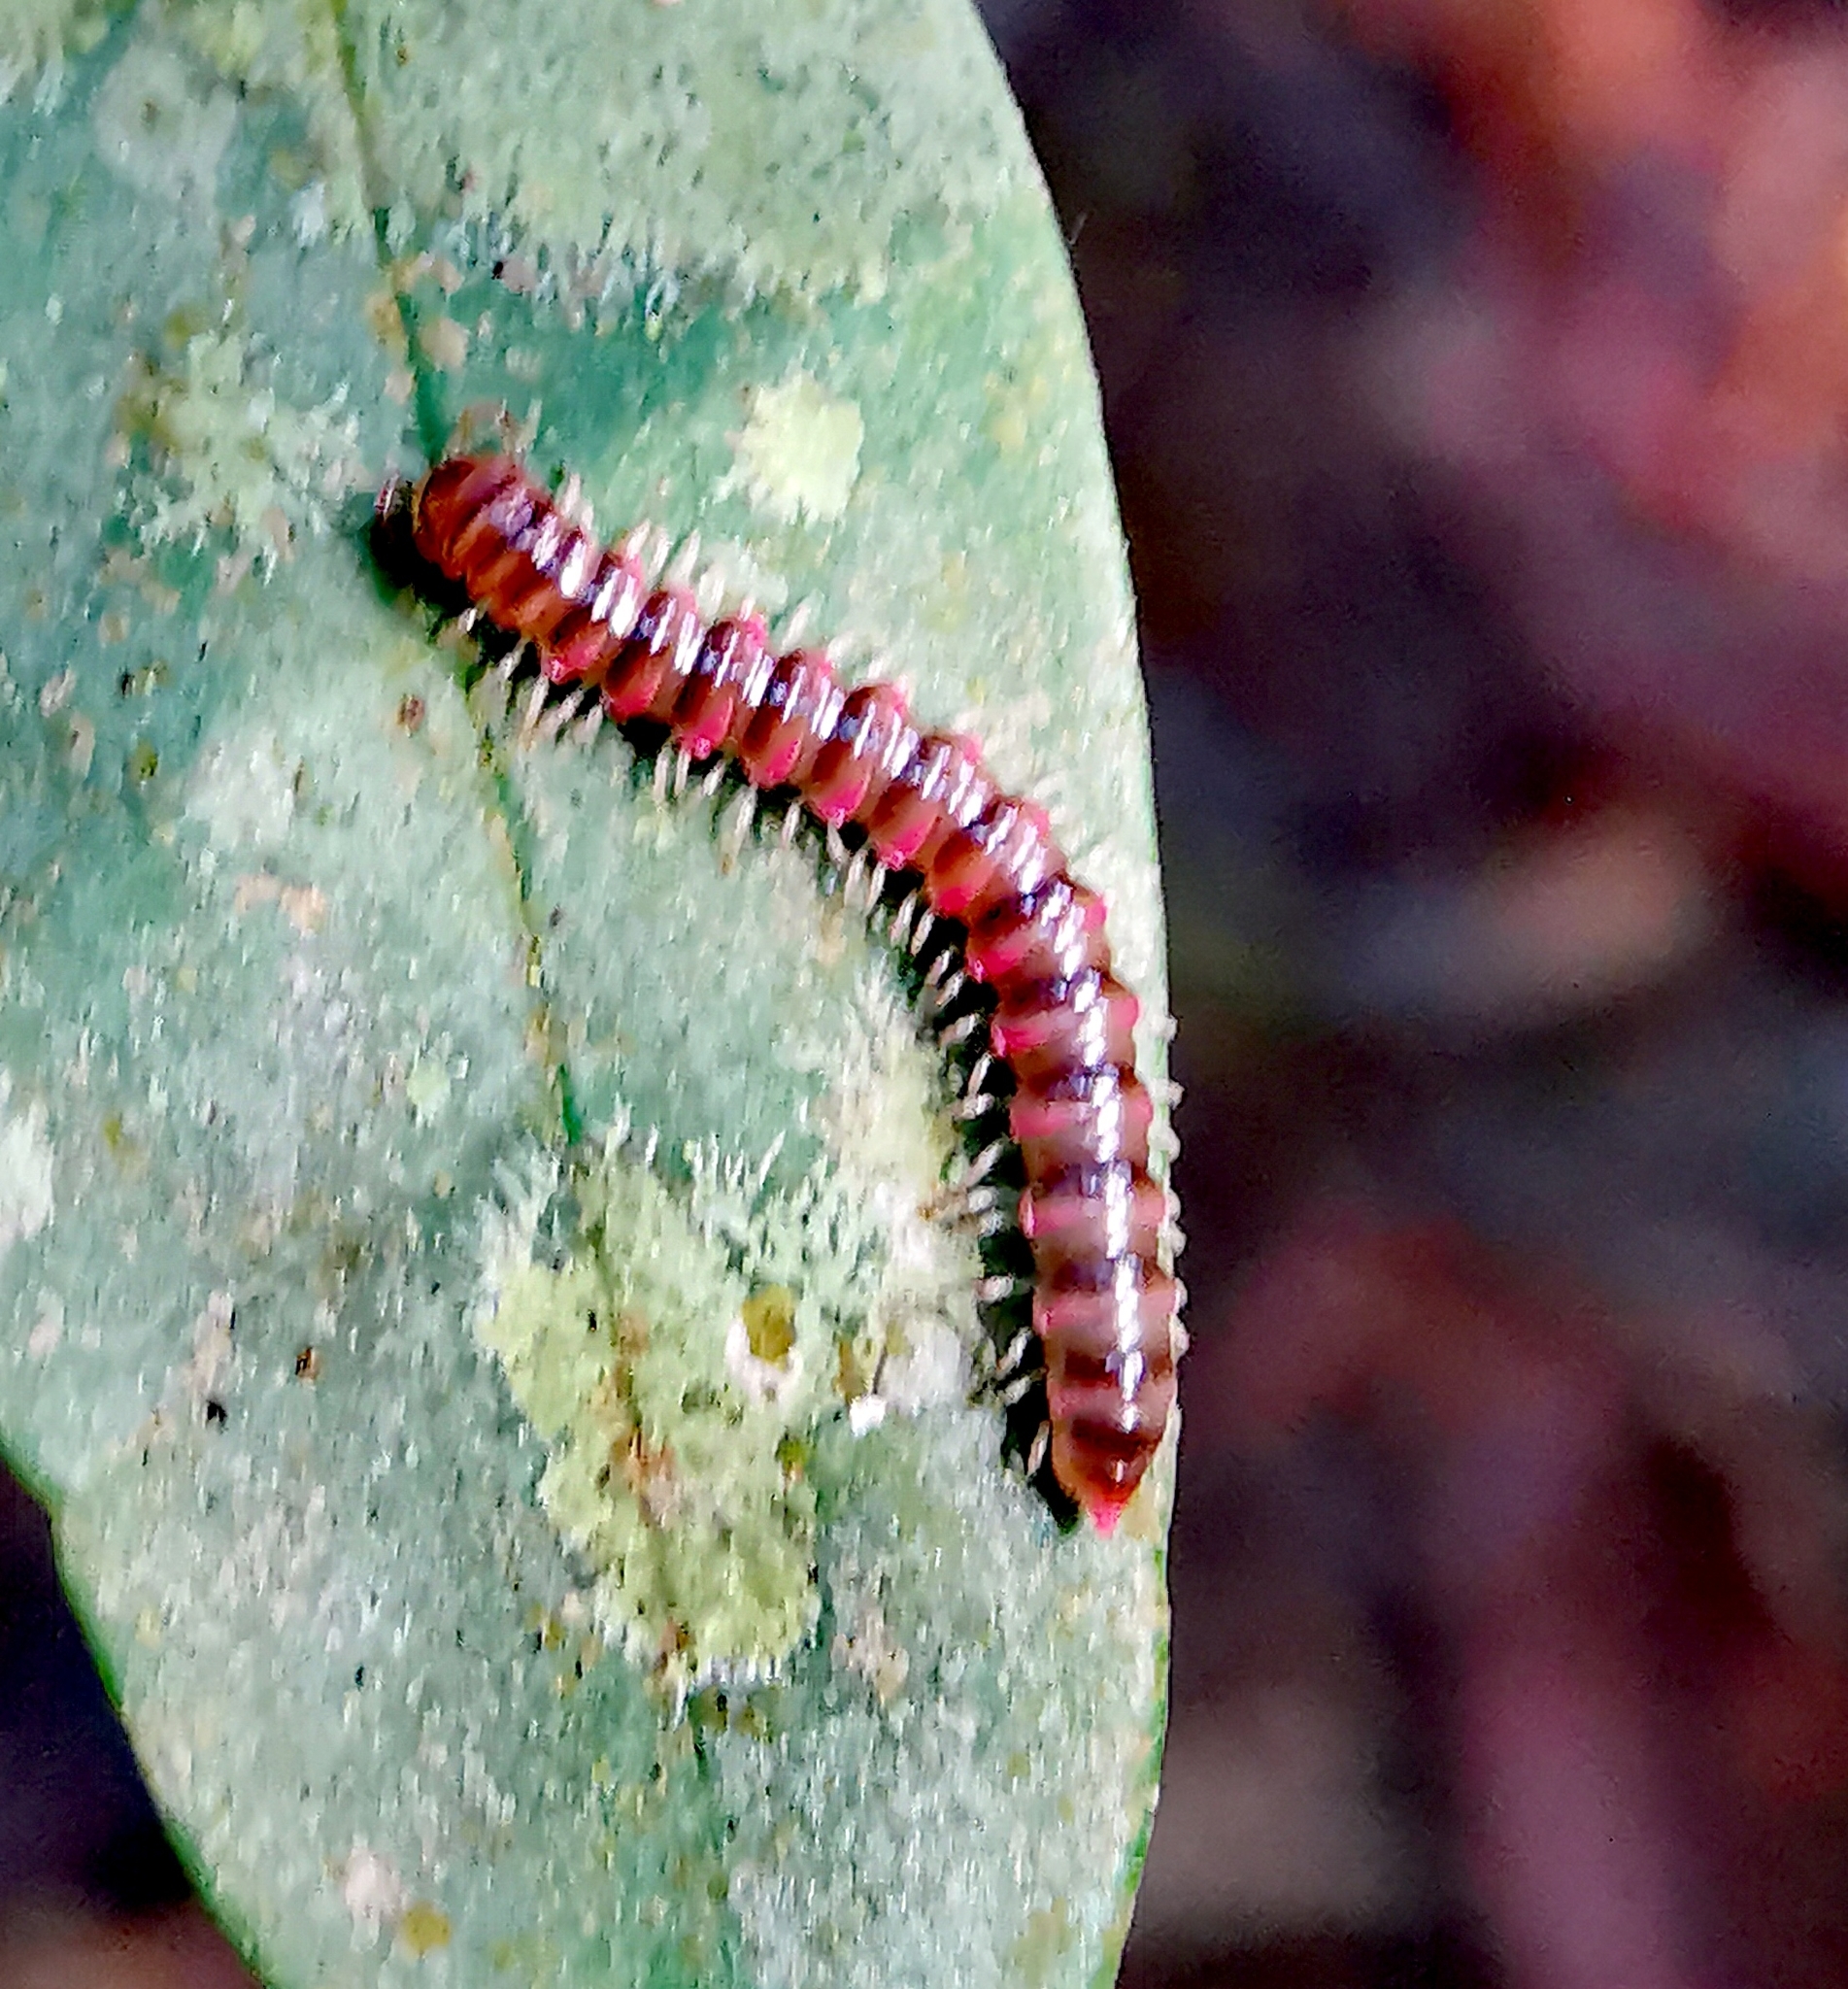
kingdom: Animalia
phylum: Arthropoda
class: Diplopoda
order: Polydesmida
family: Paradoxosomatidae
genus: Opisthodolichopus
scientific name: Opisthodolichopus scandens
